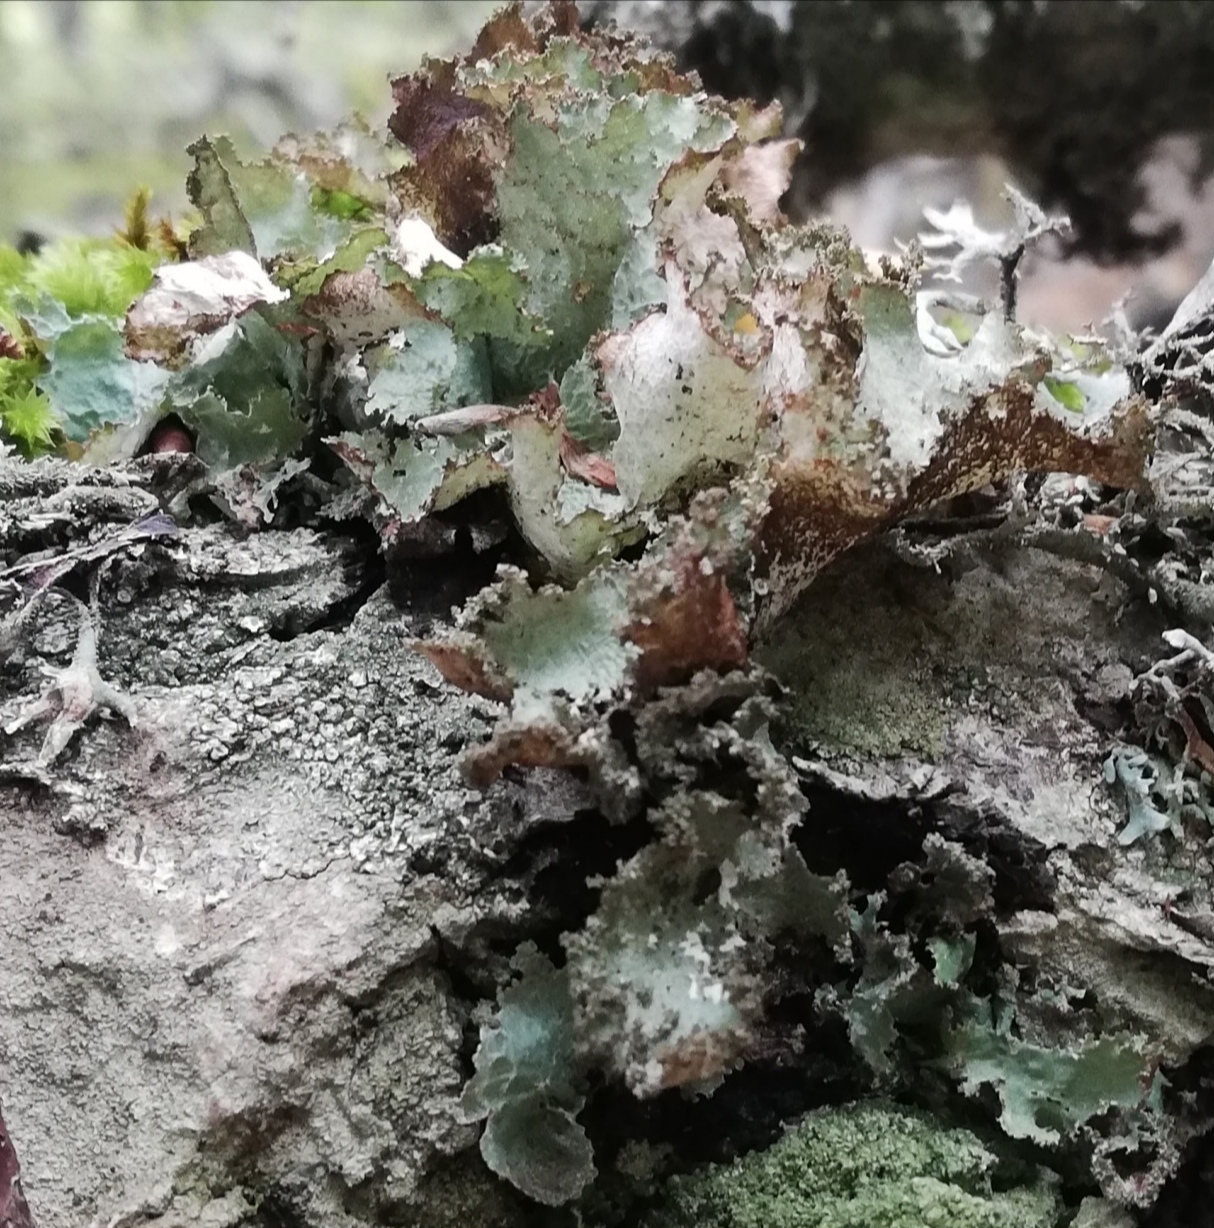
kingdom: Fungi
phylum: Ascomycota
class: Lecanoromycetes
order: Lecanorales
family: Parmeliaceae
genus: Platismatia
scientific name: Platismatia glauca
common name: Varied rag lichen
